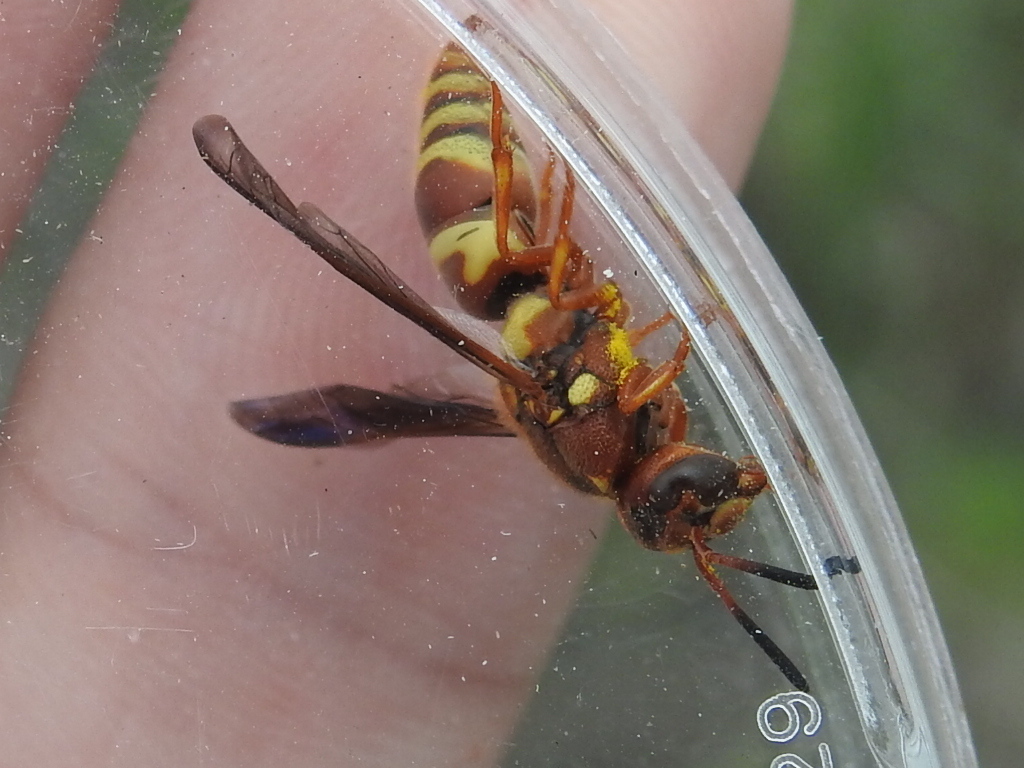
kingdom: Animalia
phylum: Arthropoda
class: Insecta
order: Hymenoptera
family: Eumenidae
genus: Euodynerus
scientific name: Euodynerus pratensis
